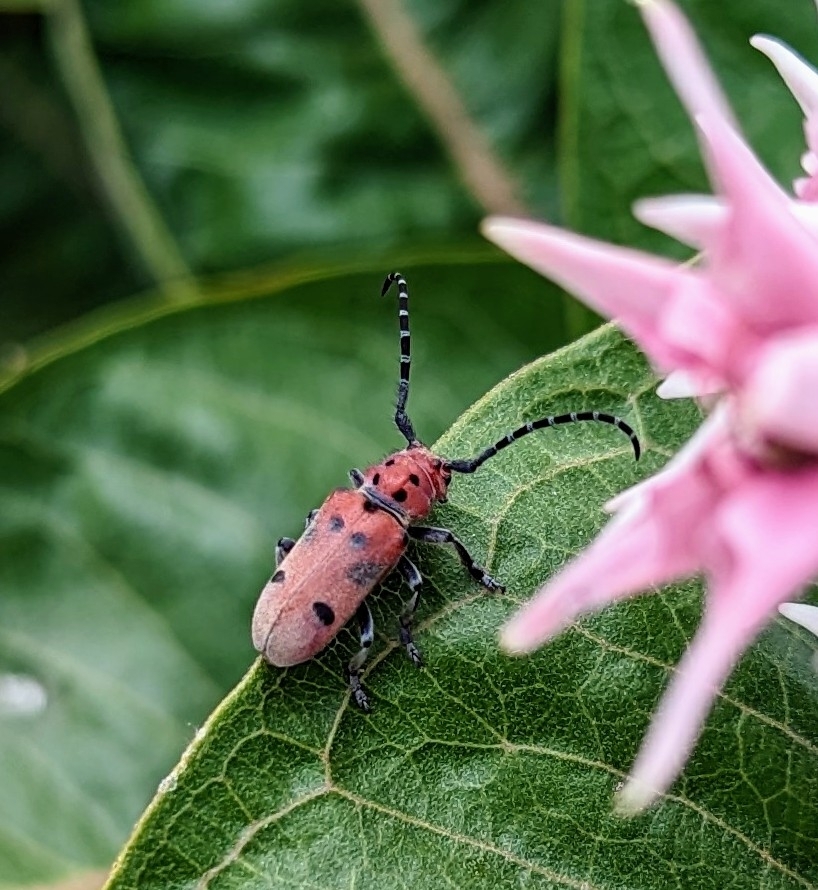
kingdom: Animalia
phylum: Arthropoda
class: Insecta
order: Coleoptera
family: Cerambycidae
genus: Tetraopes
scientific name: Tetraopes femoratus
